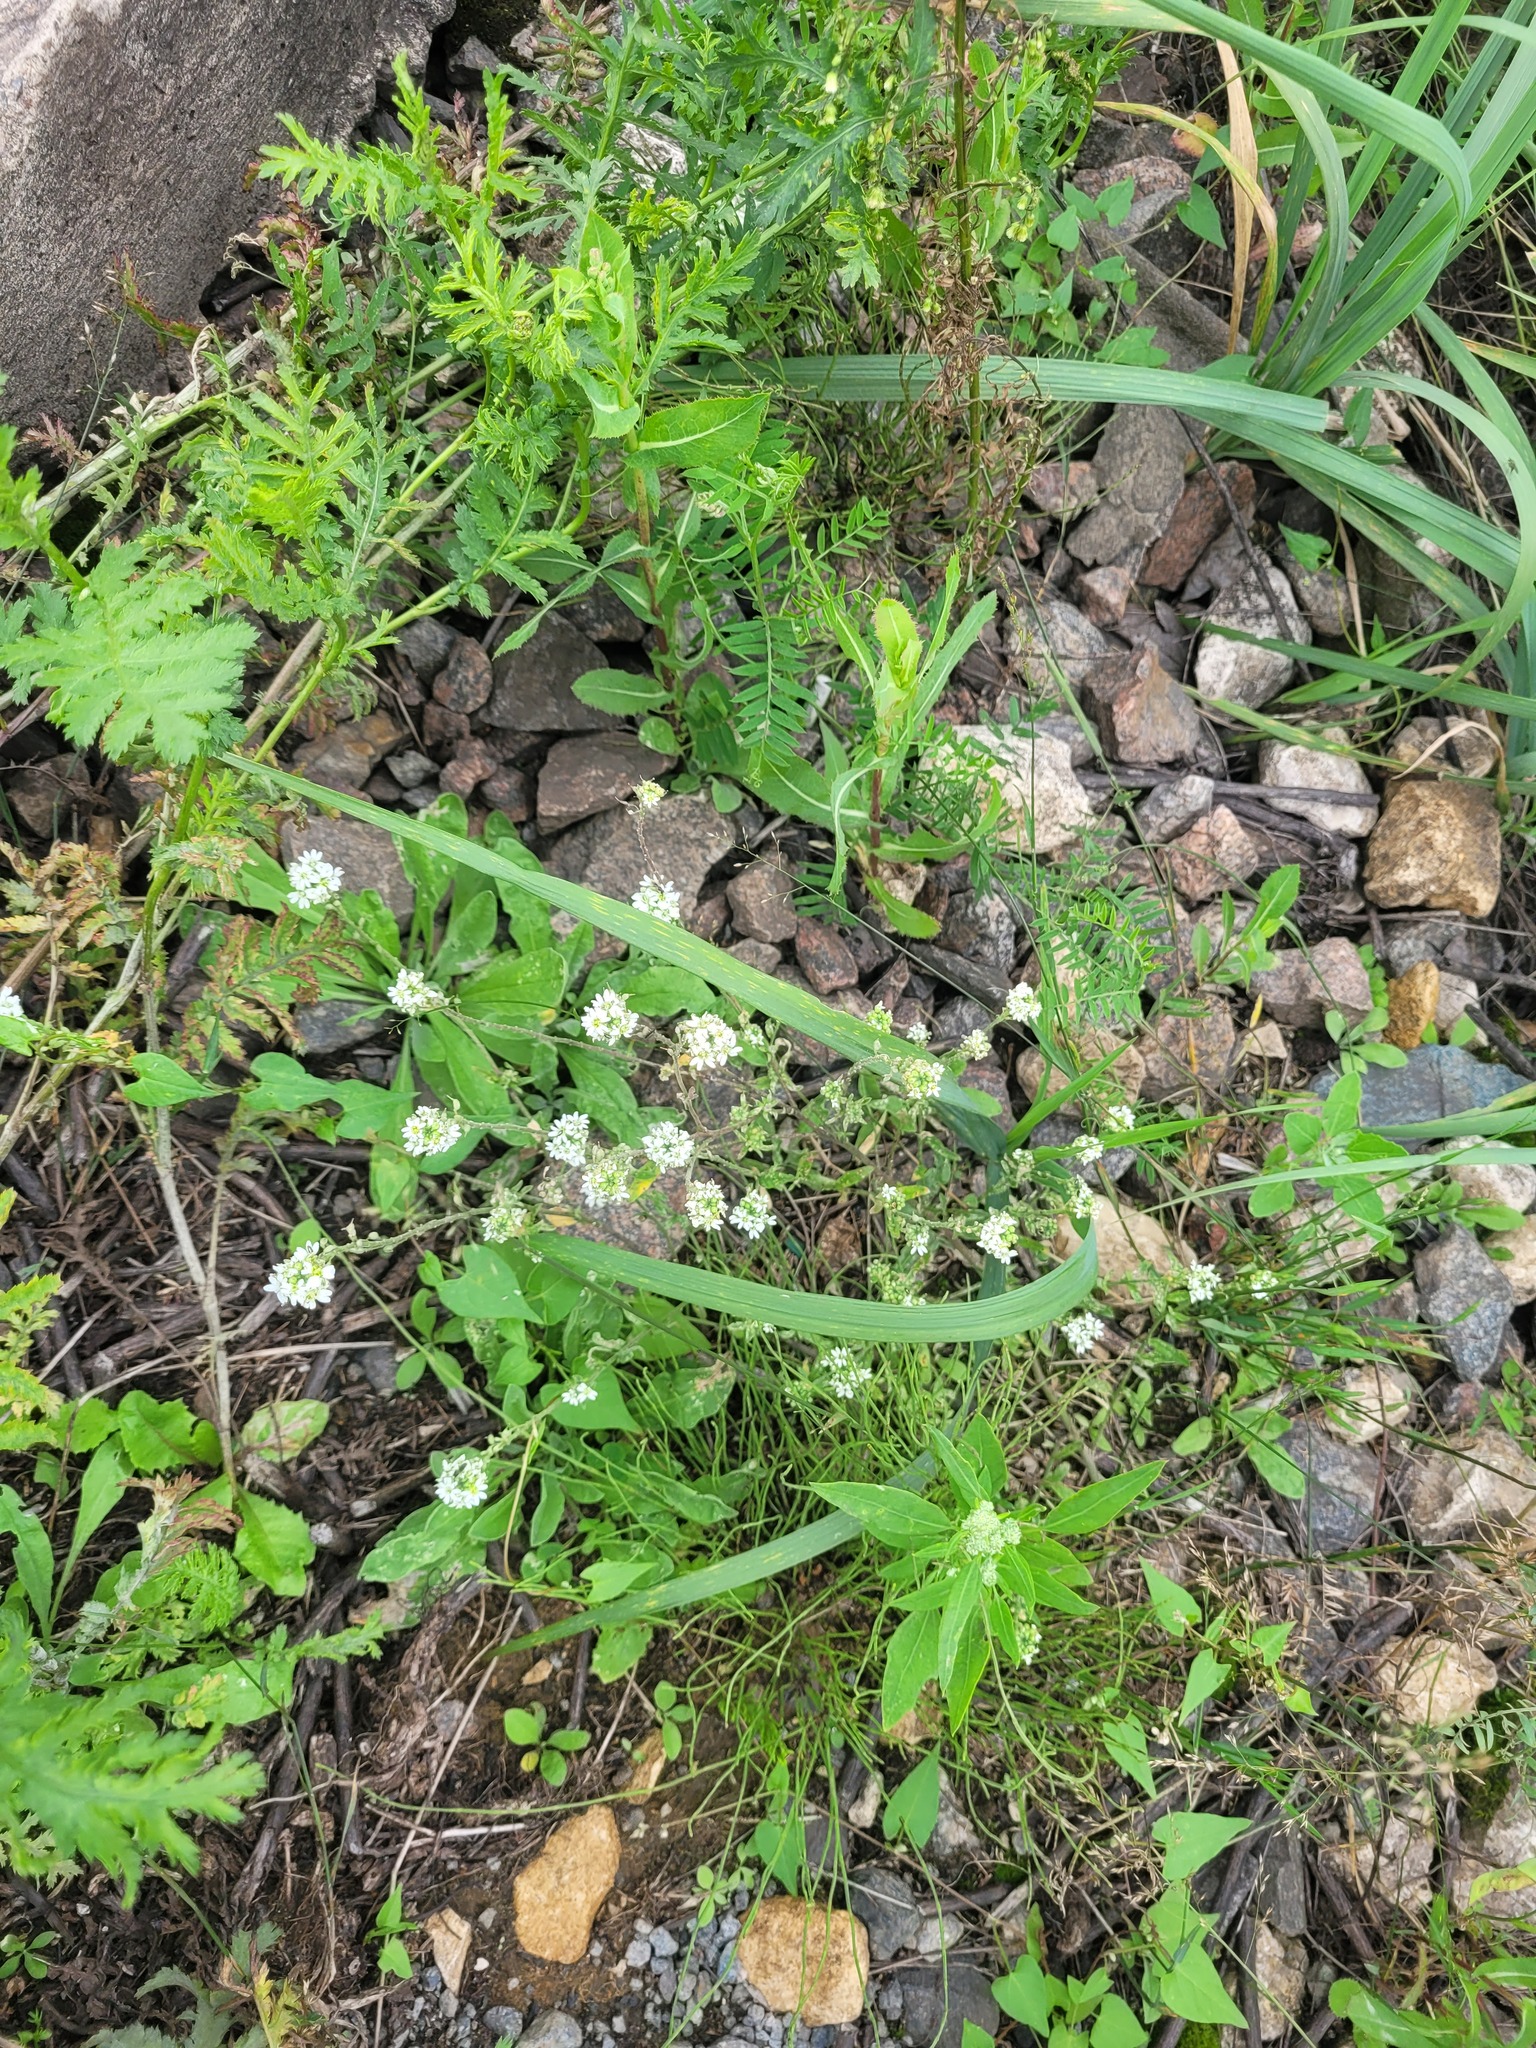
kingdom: Plantae
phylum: Tracheophyta
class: Magnoliopsida
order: Brassicales
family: Brassicaceae
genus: Berteroa
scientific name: Berteroa incana
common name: Hoary alison
